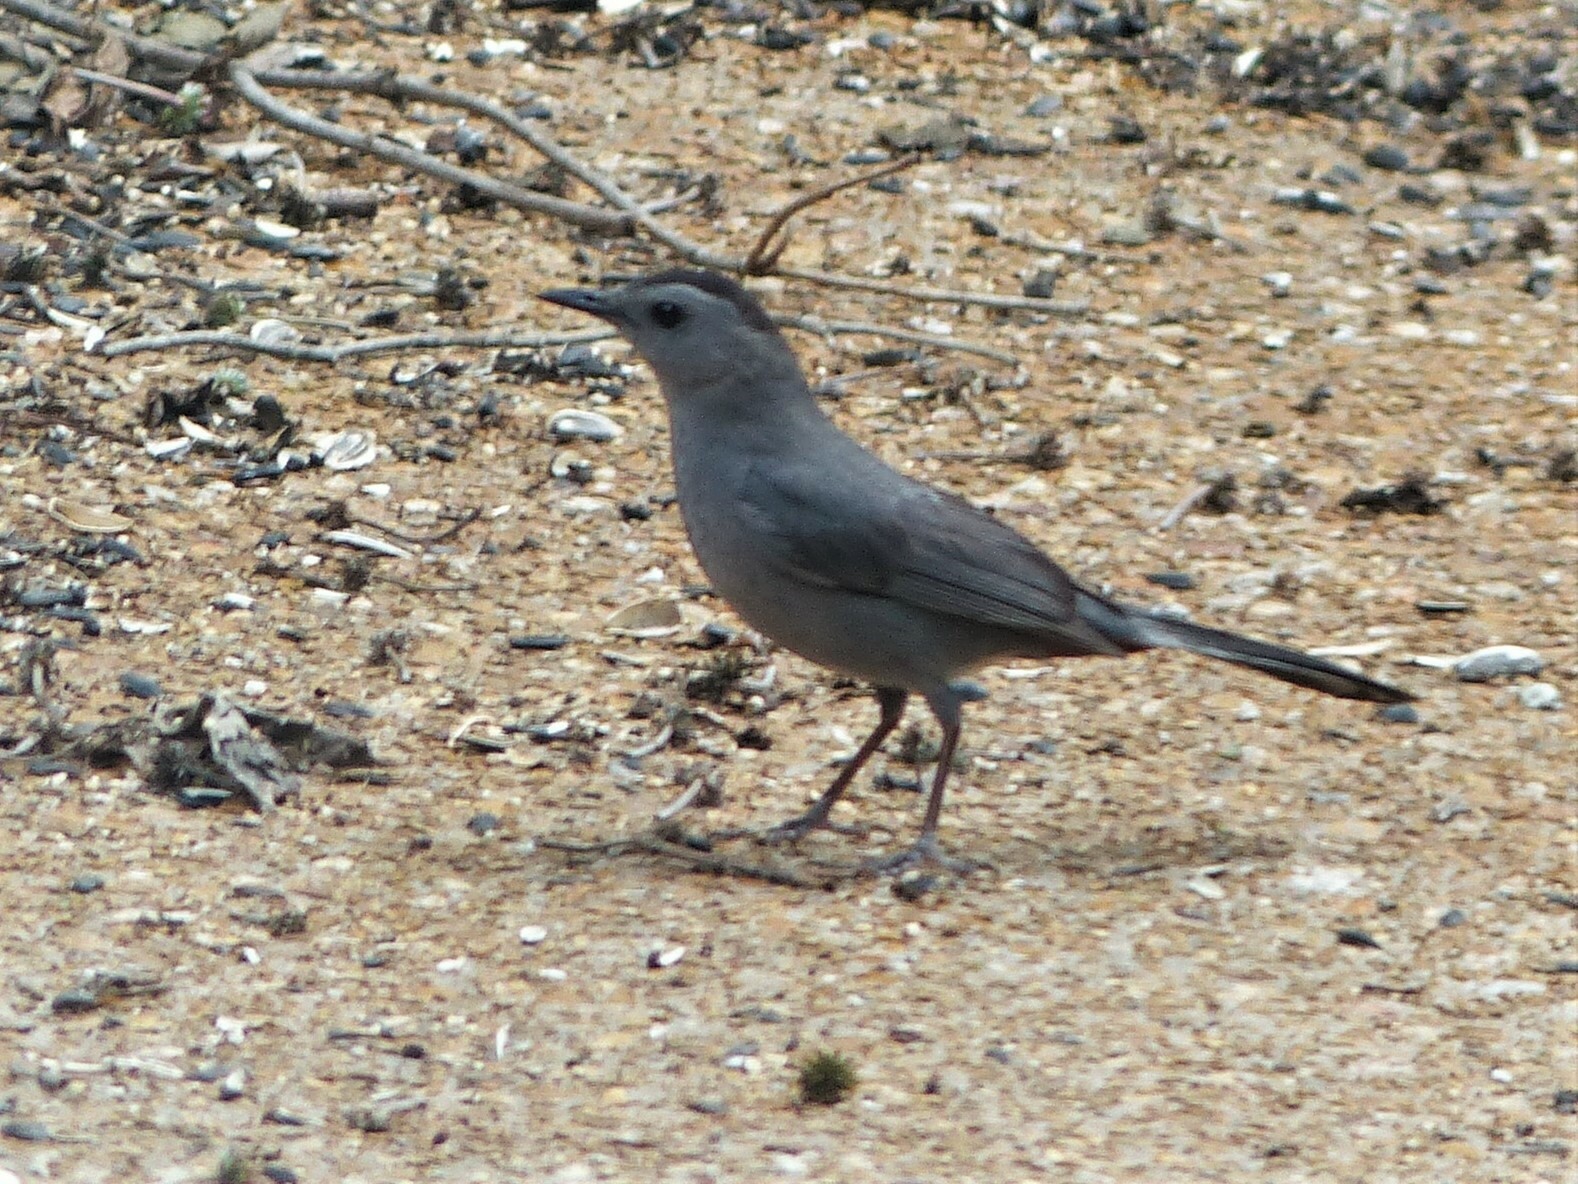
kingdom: Animalia
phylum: Chordata
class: Aves
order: Passeriformes
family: Mimidae
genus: Dumetella
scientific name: Dumetella carolinensis
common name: Gray catbird
